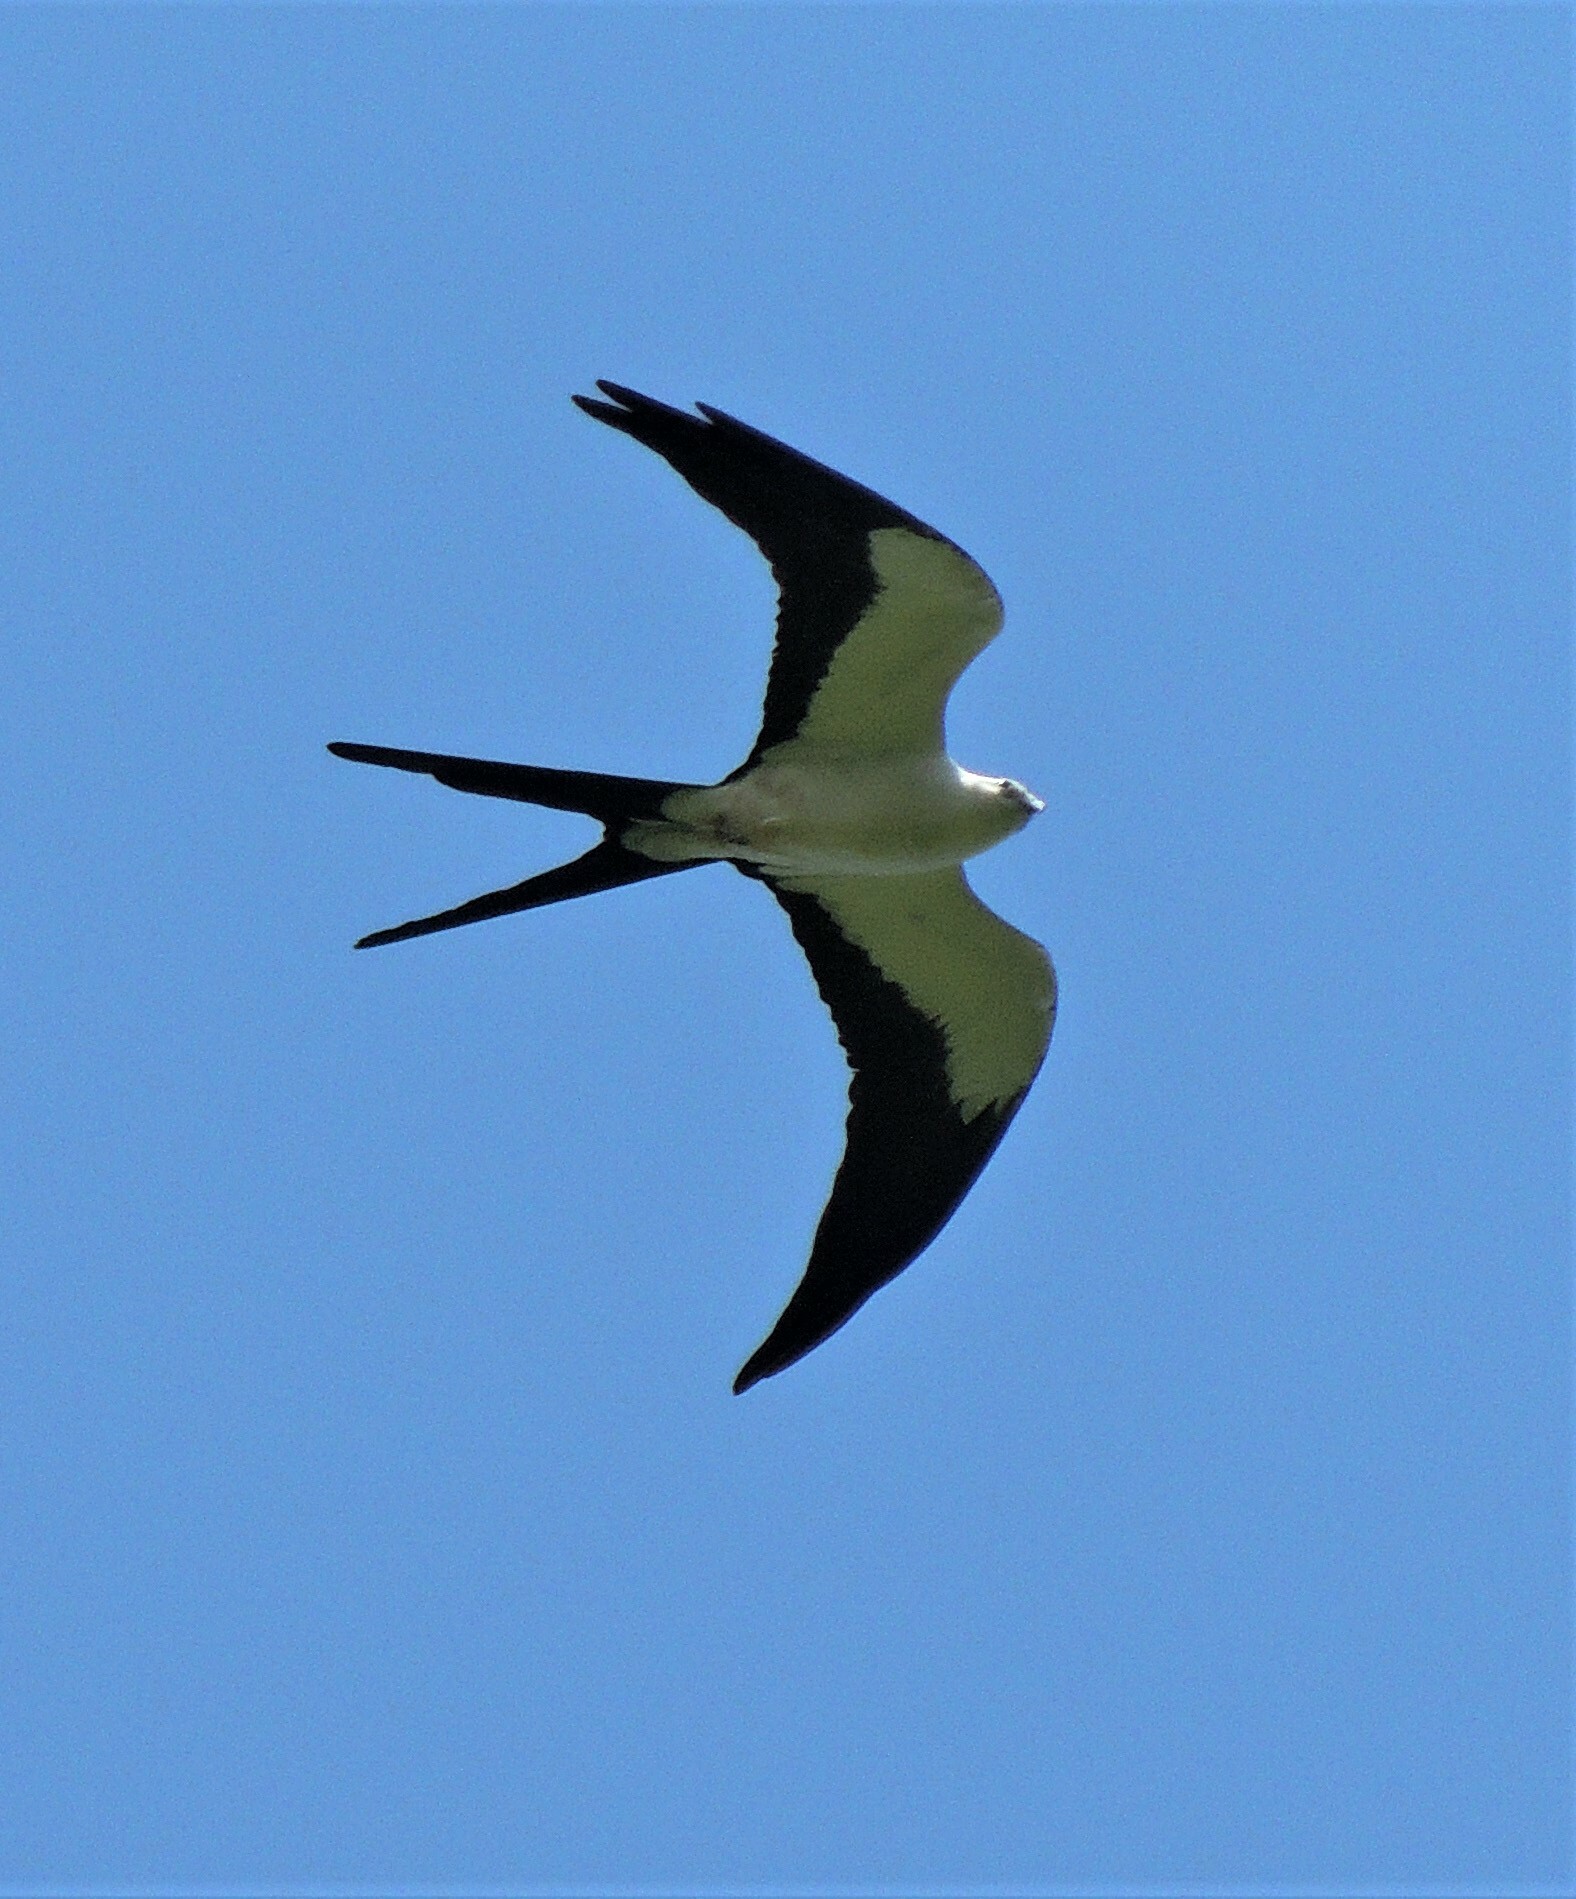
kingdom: Animalia
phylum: Chordata
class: Aves
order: Accipitriformes
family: Accipitridae
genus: Elanoides
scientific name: Elanoides forficatus
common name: Swallow-tailed kite
